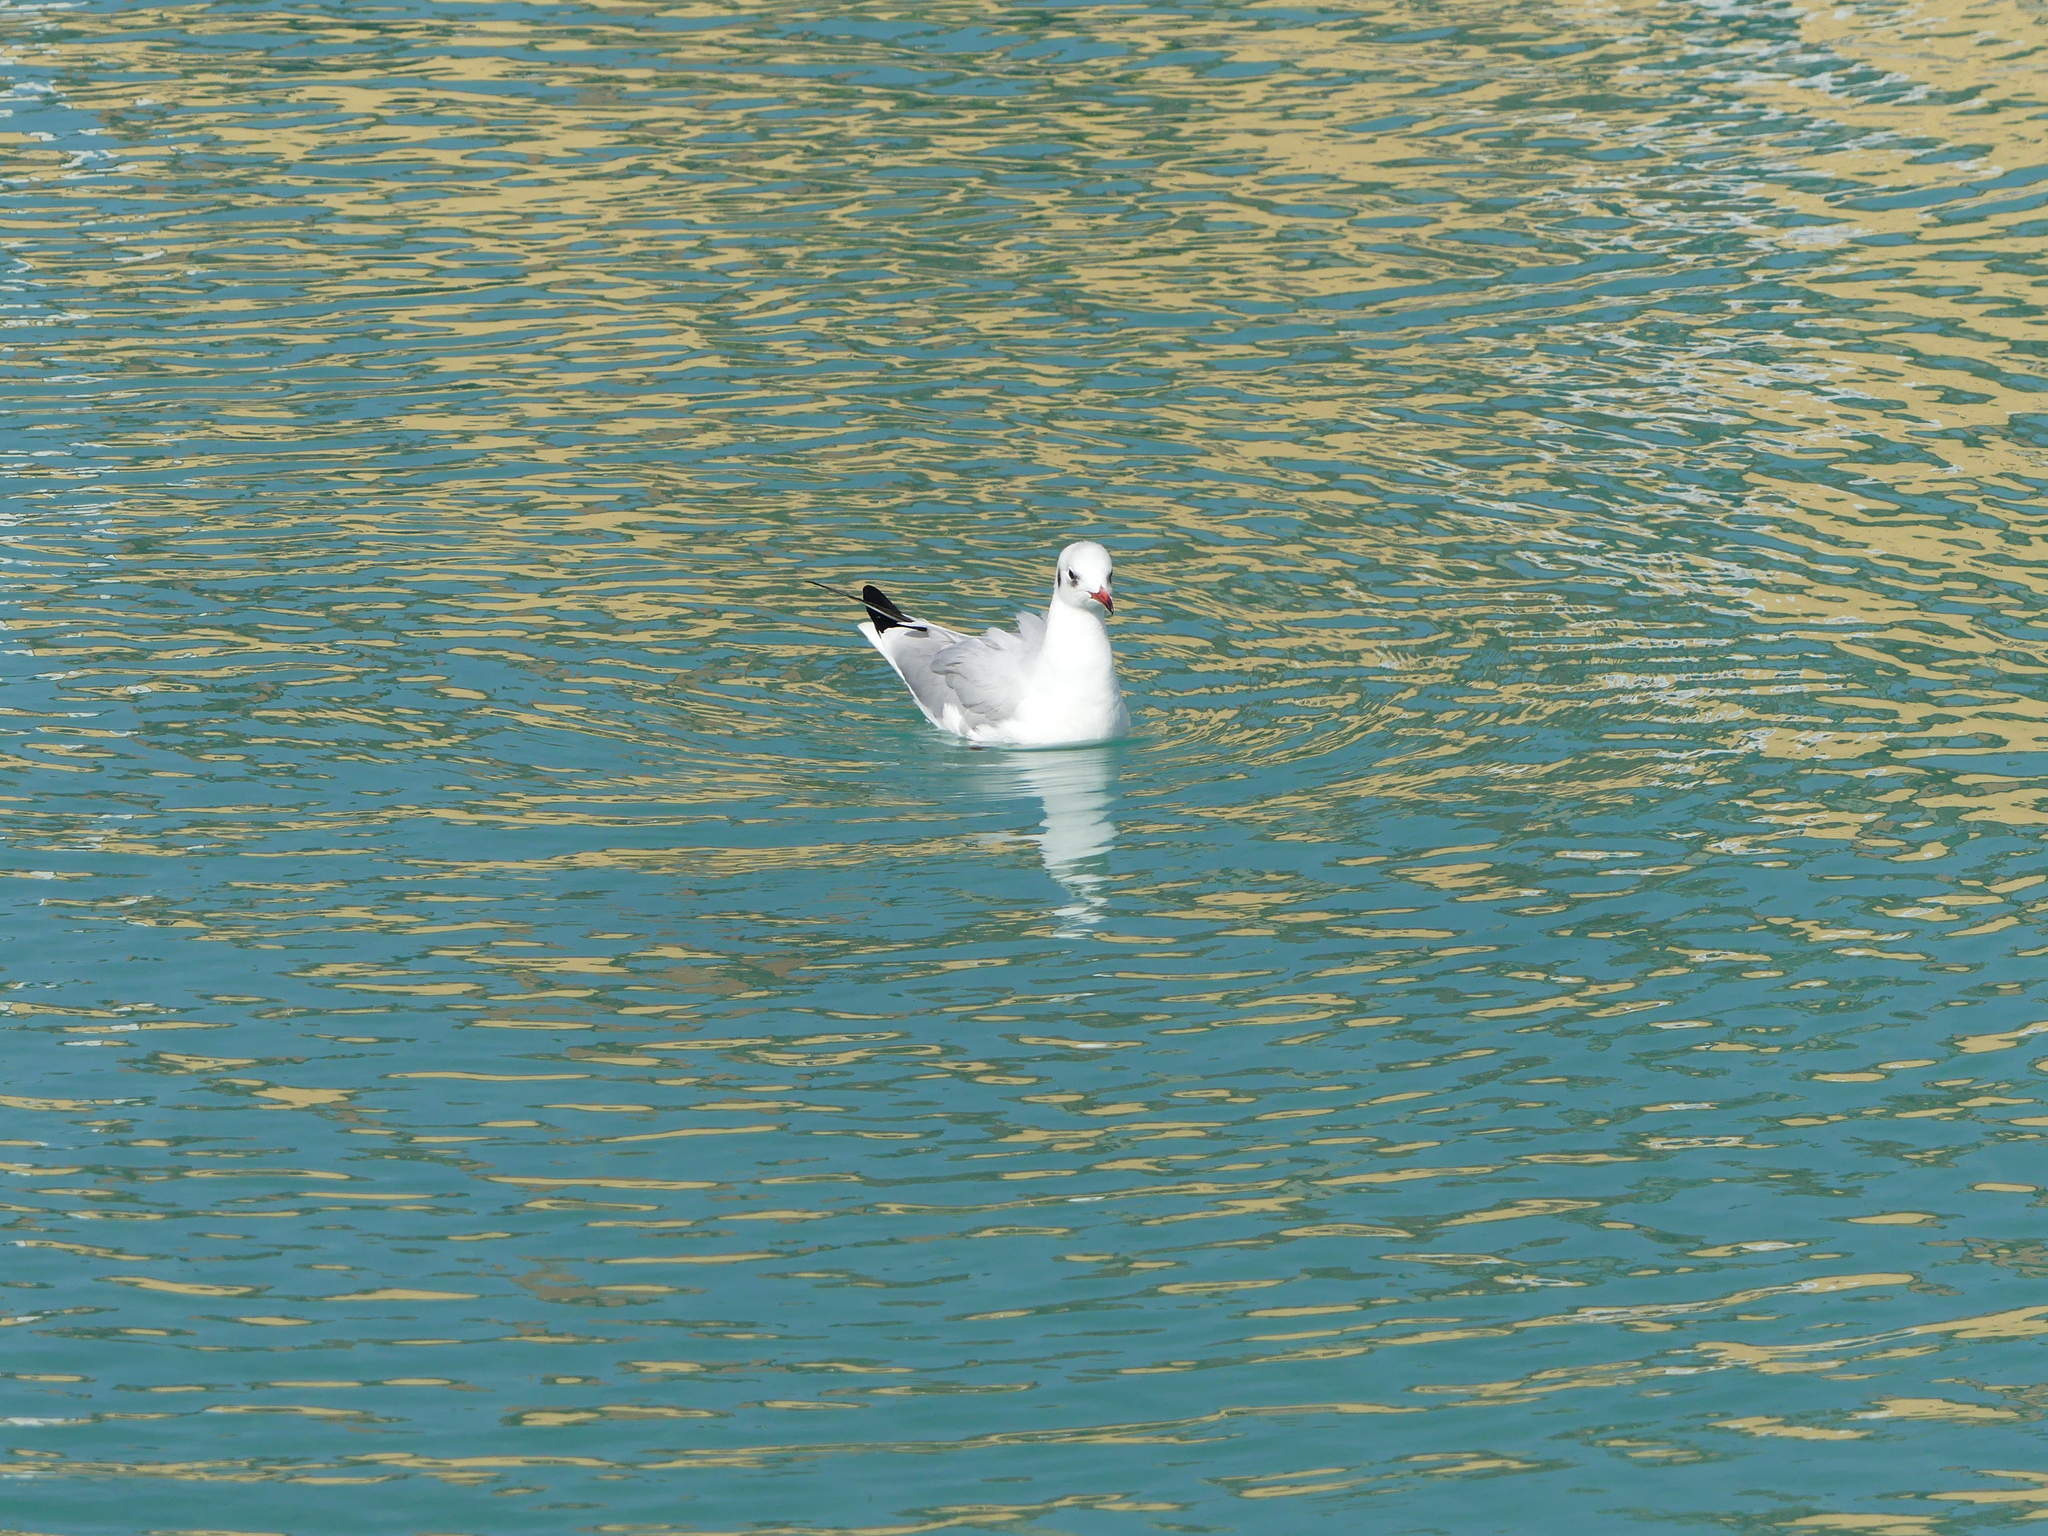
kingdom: Animalia
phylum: Chordata
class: Aves
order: Charadriiformes
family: Laridae
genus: Chroicocephalus
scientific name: Chroicocephalus ridibundus
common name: Black-headed gull
